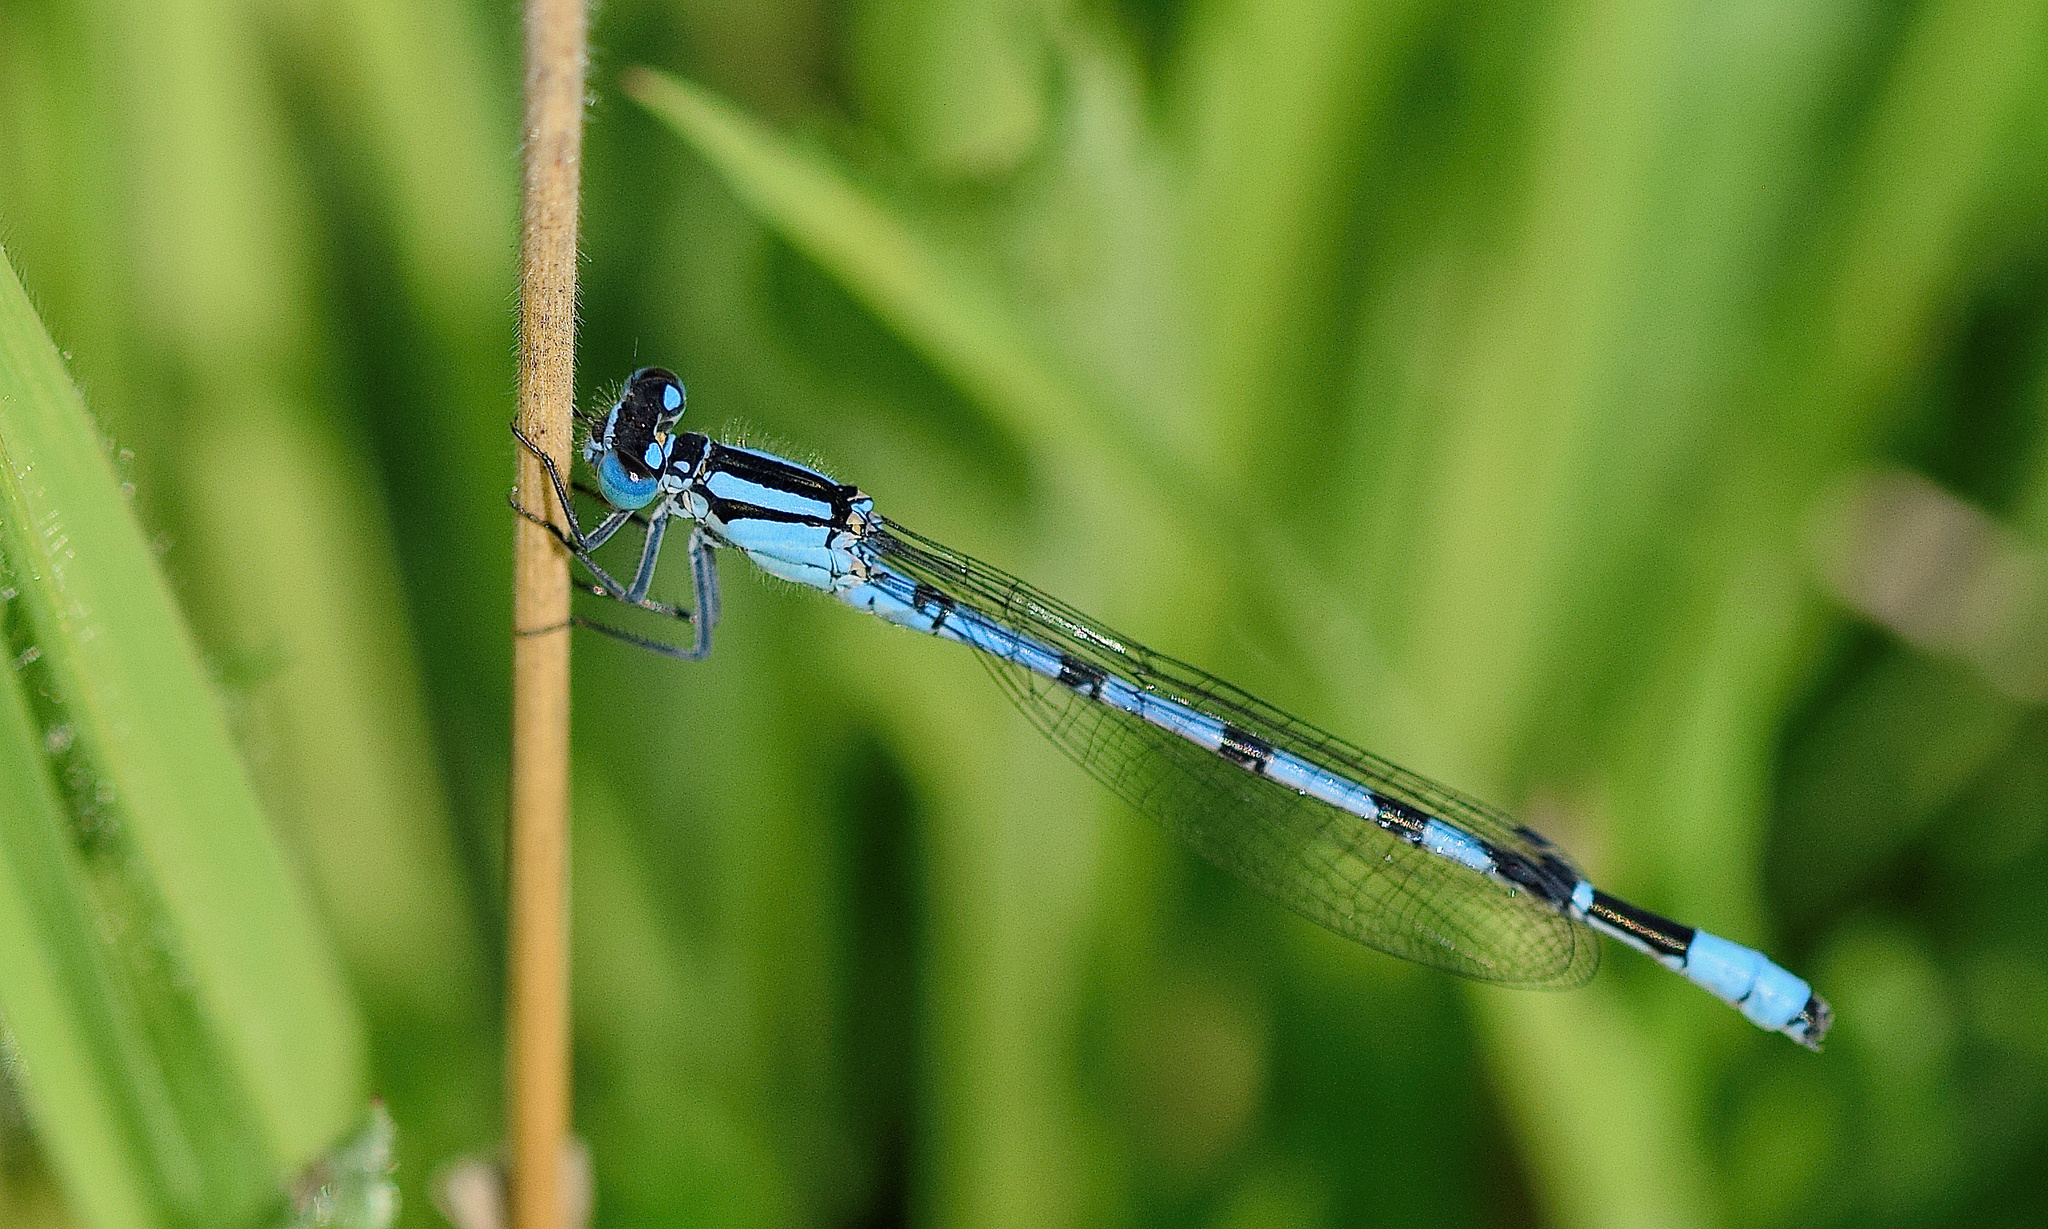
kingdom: Animalia
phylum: Arthropoda
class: Insecta
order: Odonata
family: Coenagrionidae
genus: Enallagma
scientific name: Enallagma cyathigerum
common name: Common blue damselfly
